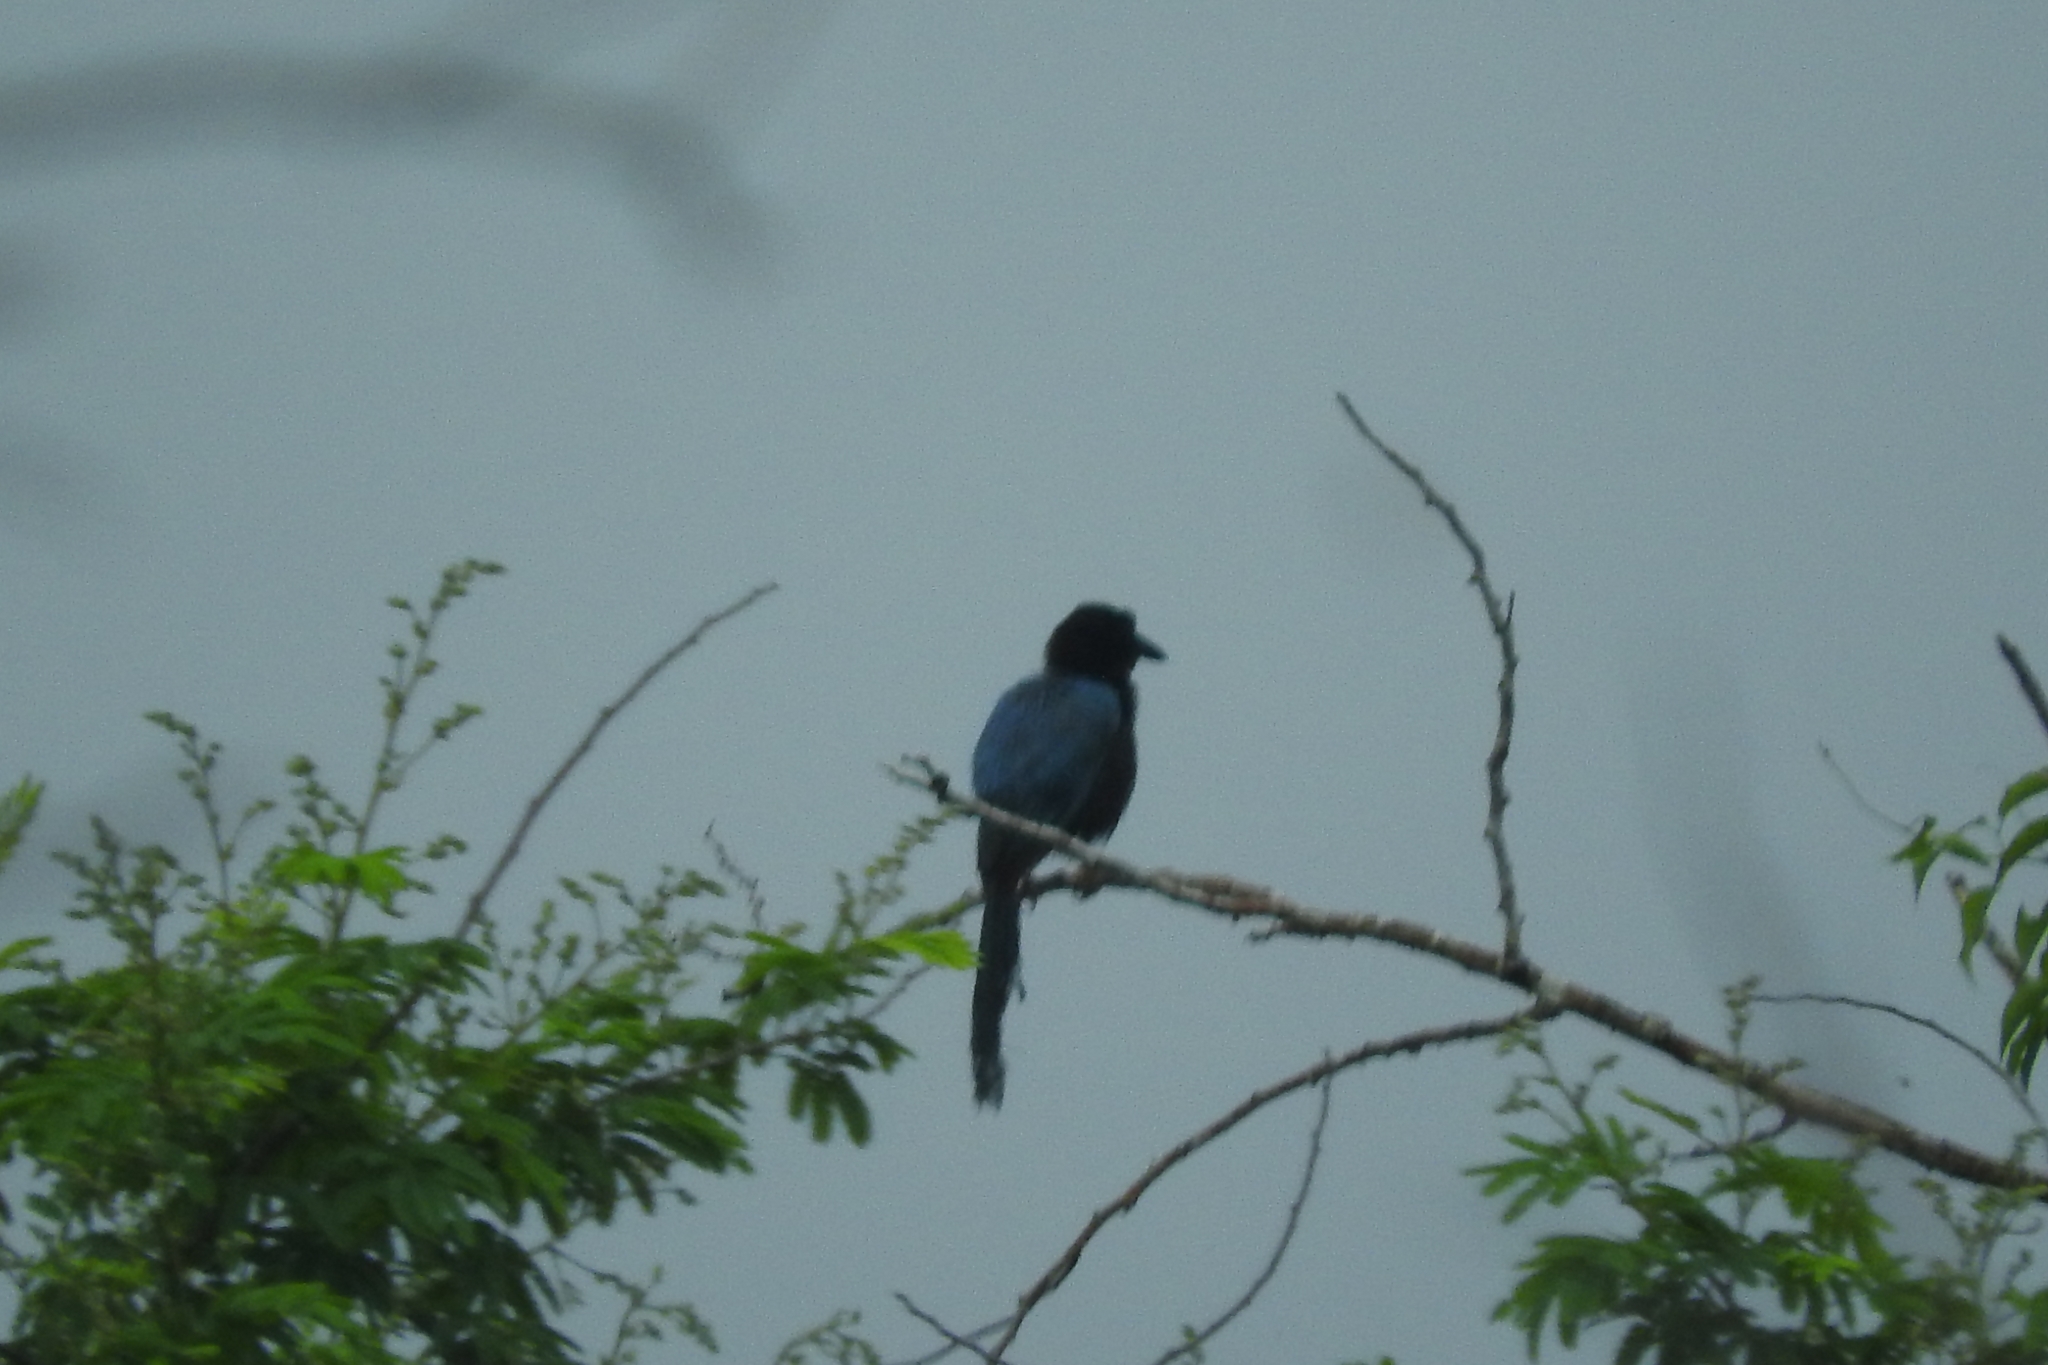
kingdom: Animalia
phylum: Chordata
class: Aves
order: Passeriformes
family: Corvidae
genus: Cyanocorax
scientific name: Cyanocorax yucatanicus
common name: Yucatan jay
